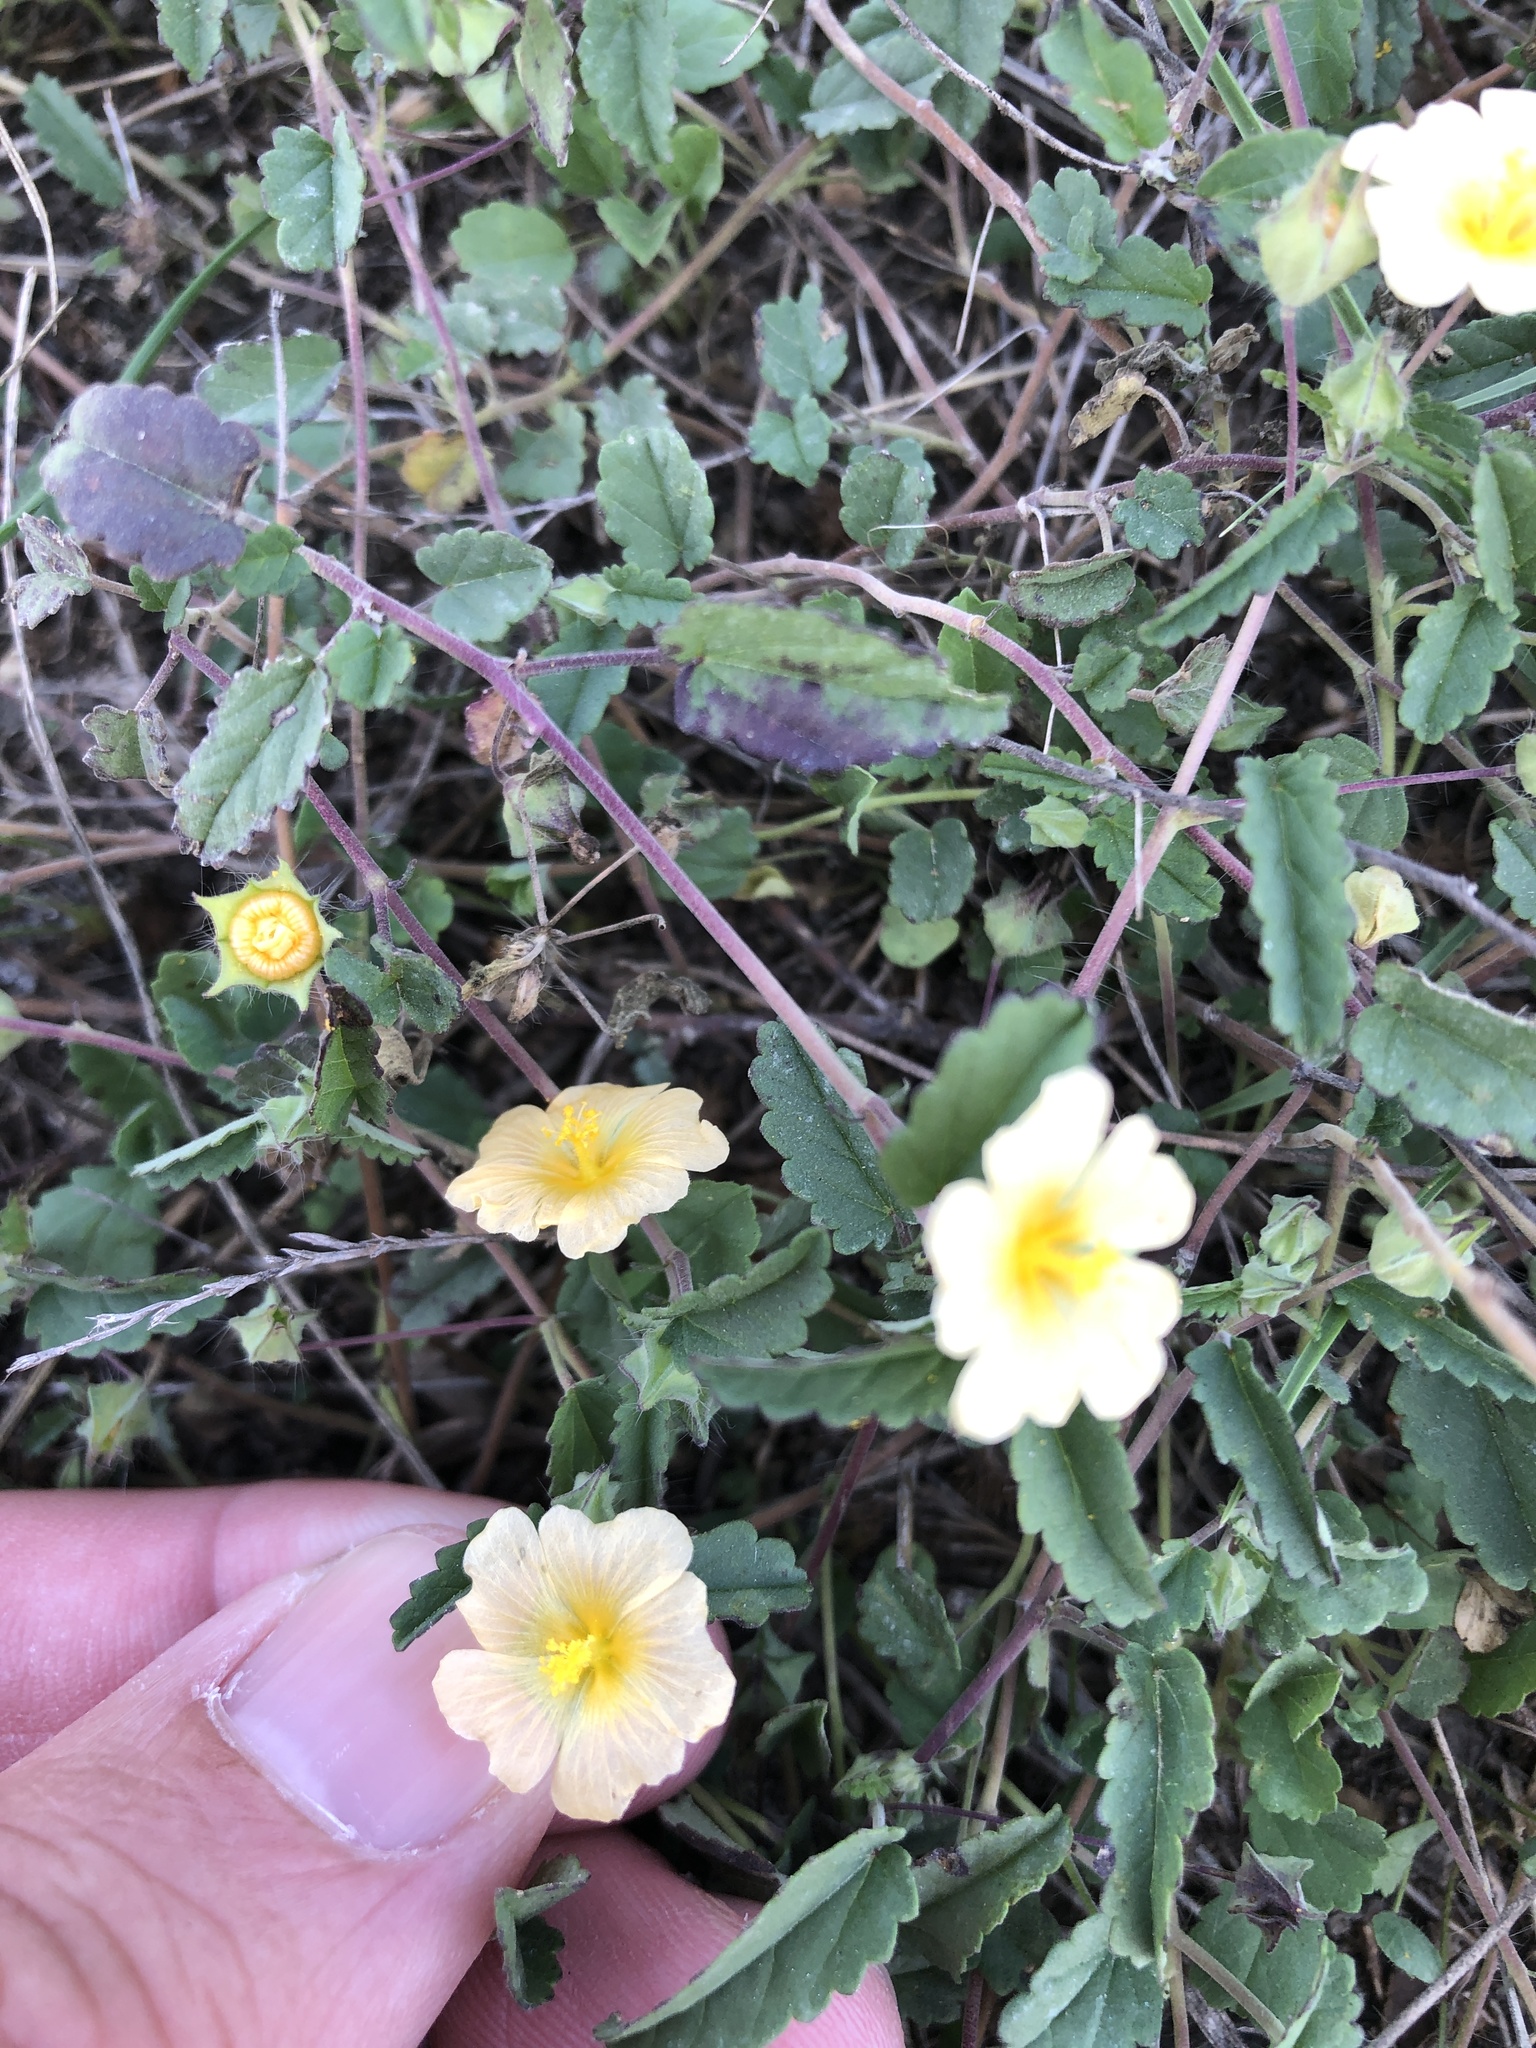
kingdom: Plantae
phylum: Tracheophyta
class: Magnoliopsida
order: Malvales
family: Malvaceae
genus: Sida
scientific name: Sida abutilifolia
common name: Spreading fanpetals
